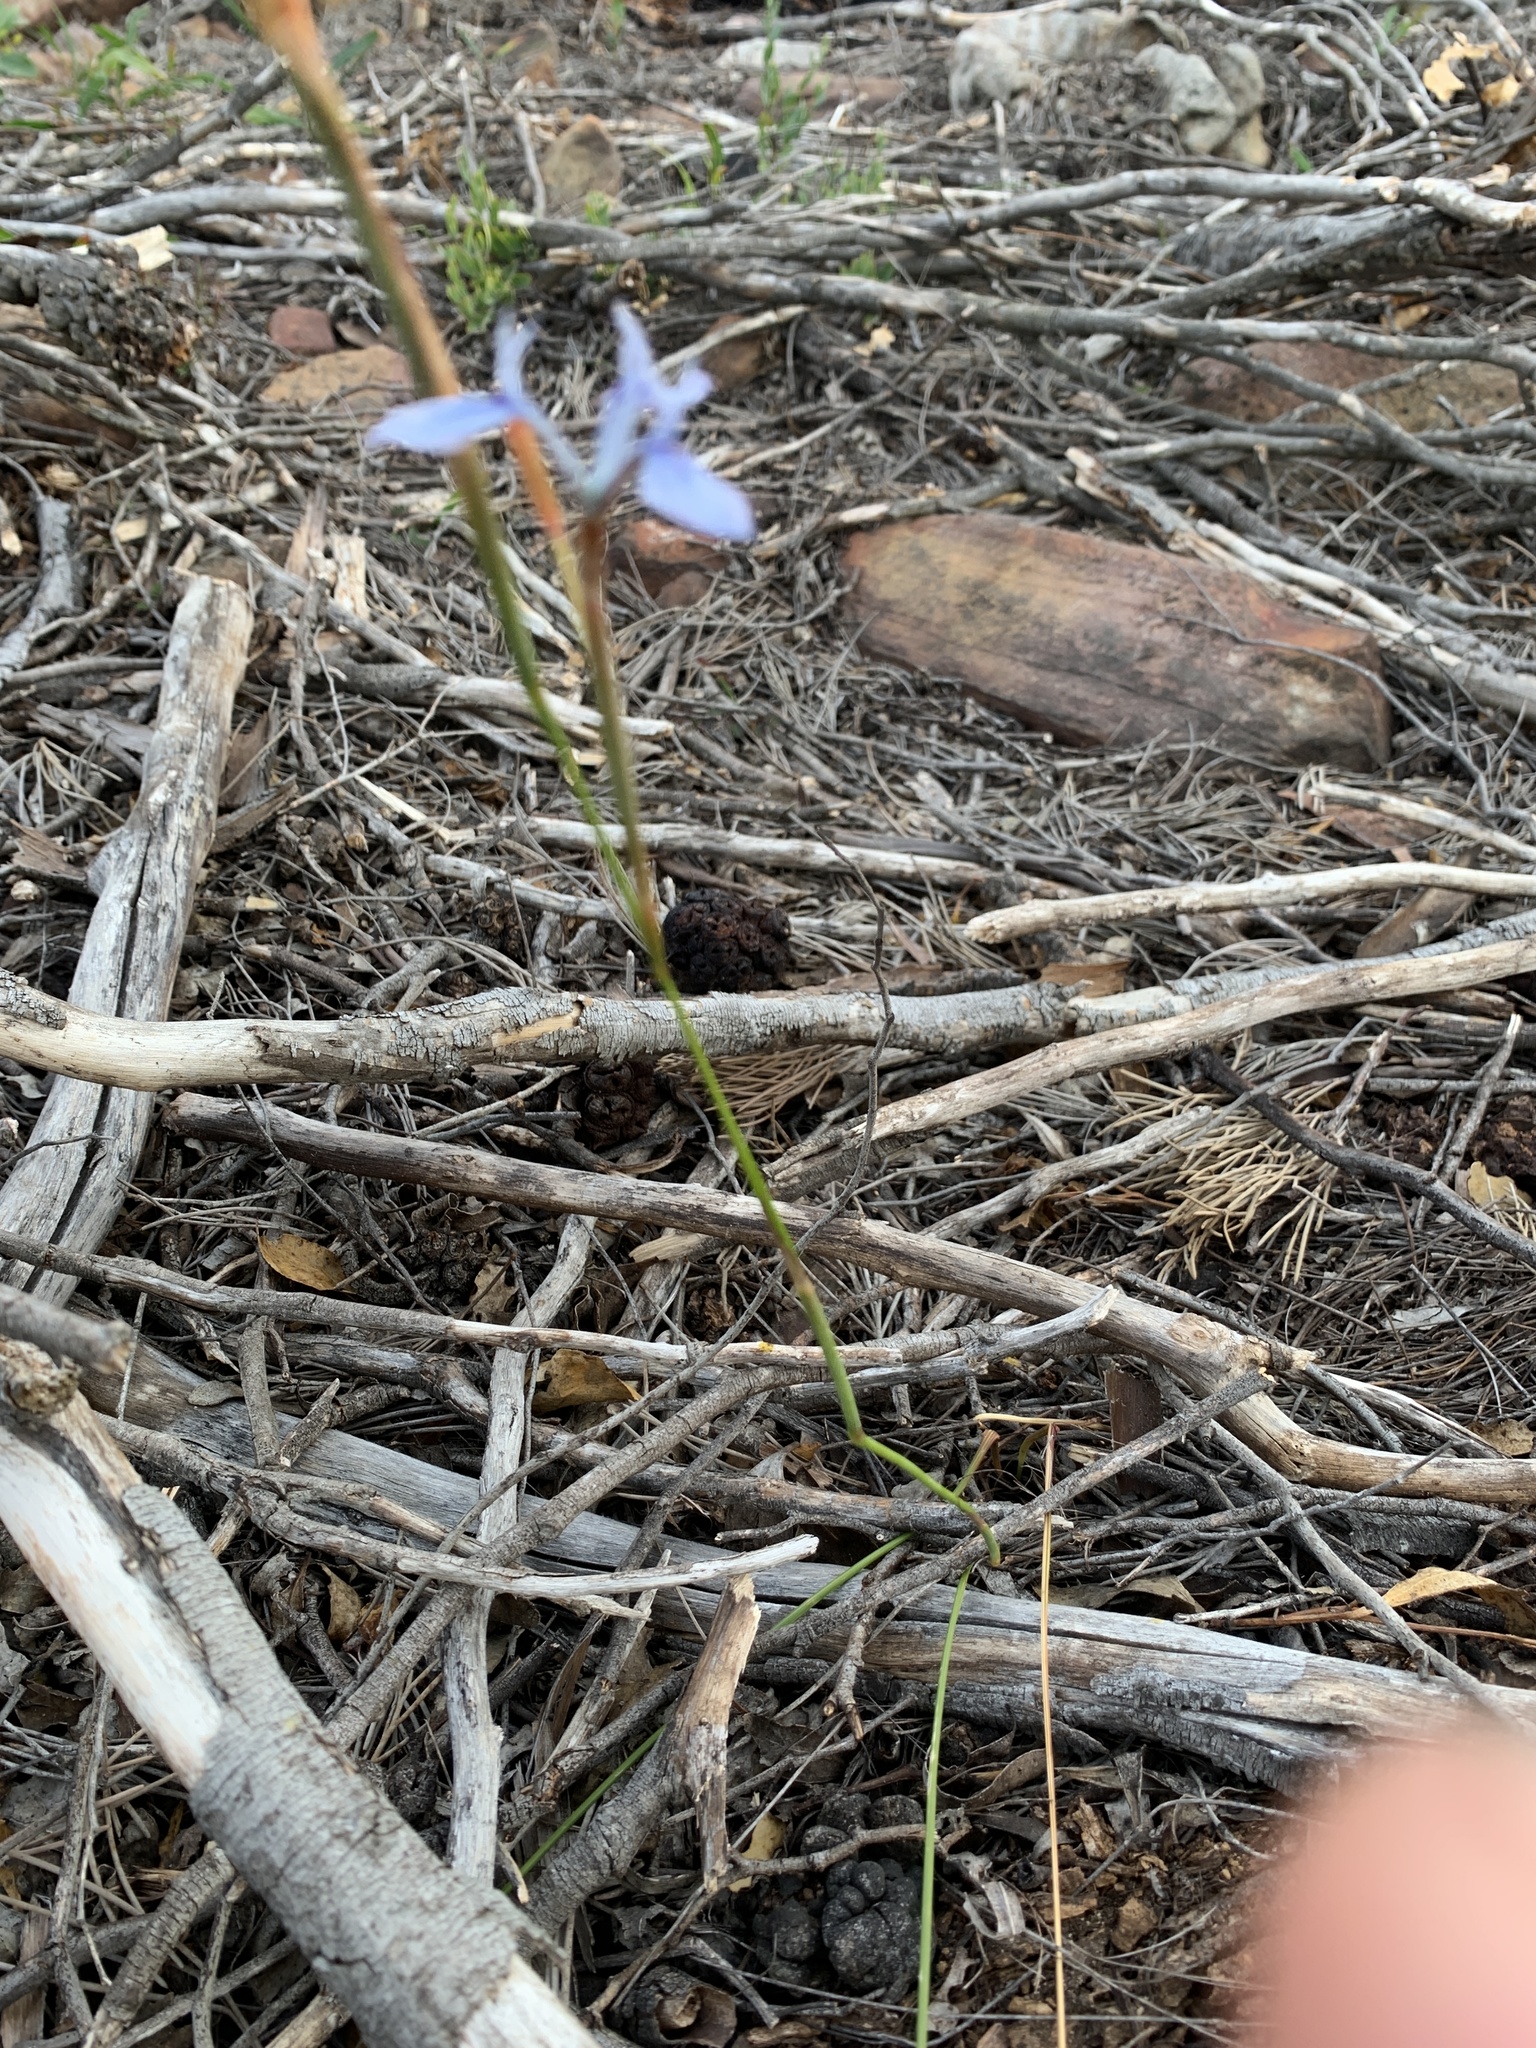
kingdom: Plantae
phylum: Tracheophyta
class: Liliopsida
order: Asparagales
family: Iridaceae
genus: Moraea
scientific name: Moraea tripetala
